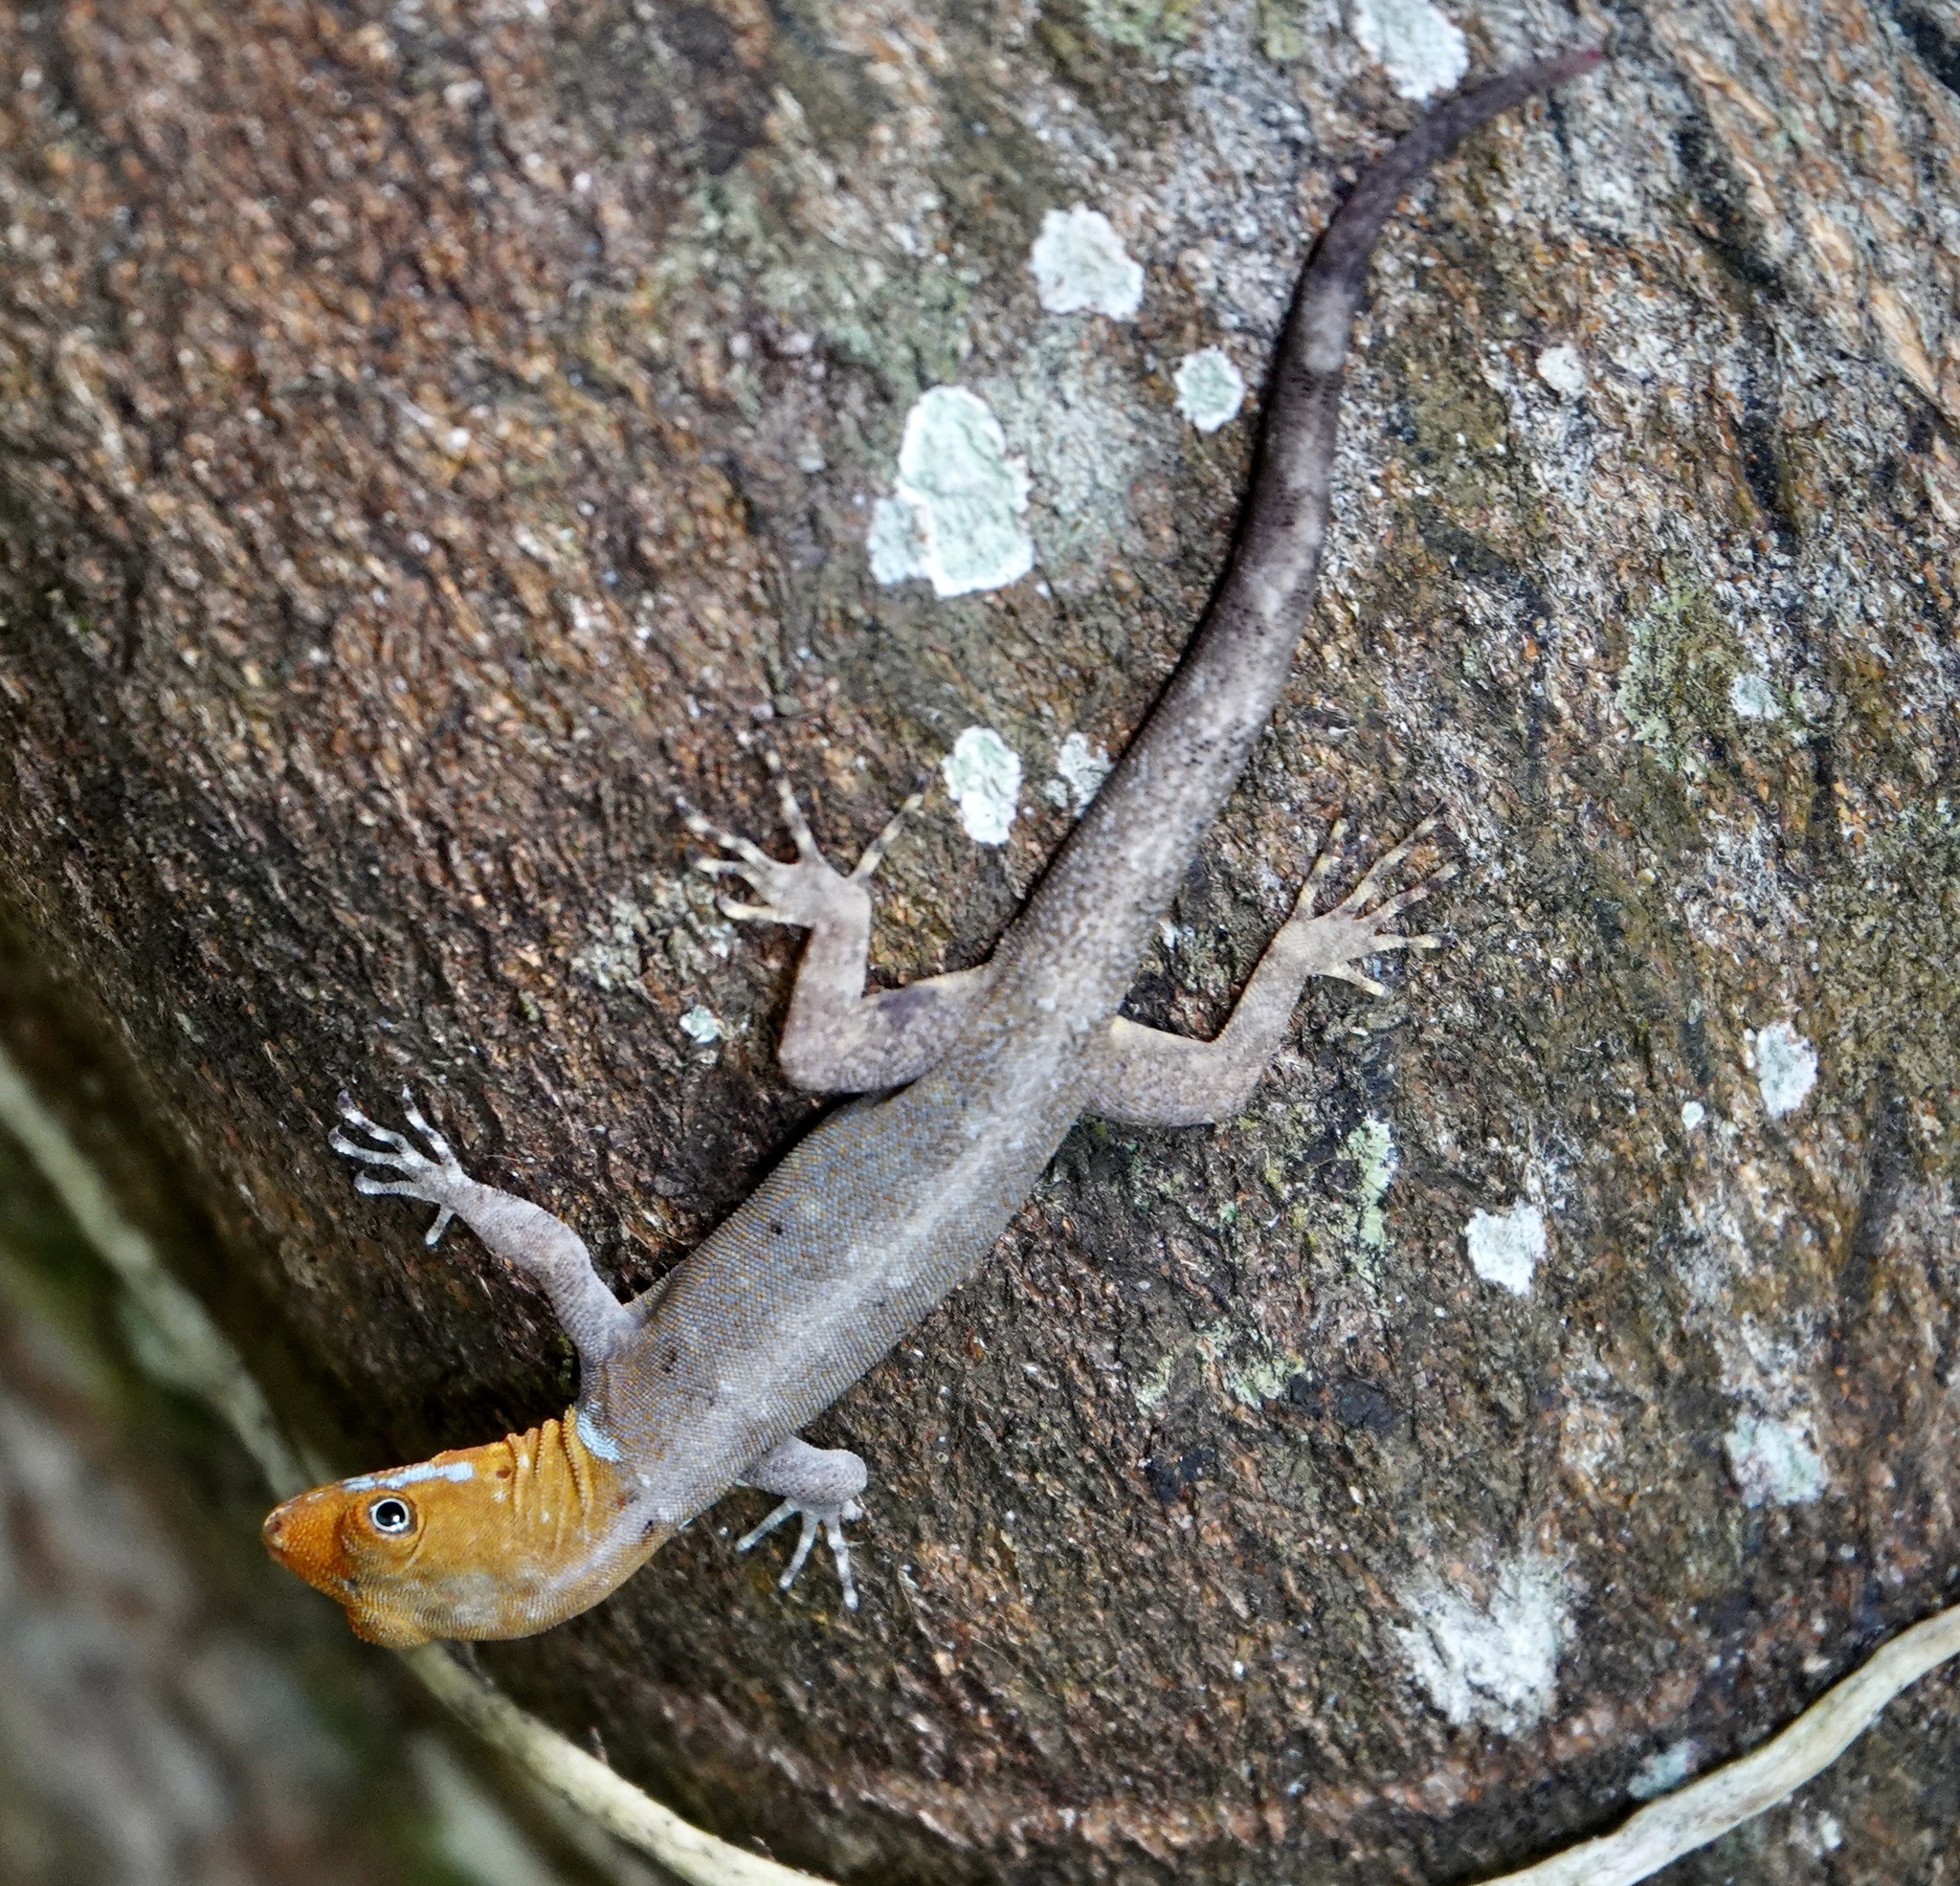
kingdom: Animalia
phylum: Chordata
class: Squamata
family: Sphaerodactylidae
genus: Gonatodes
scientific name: Gonatodes albogularis
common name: Yellow-headed gecko
